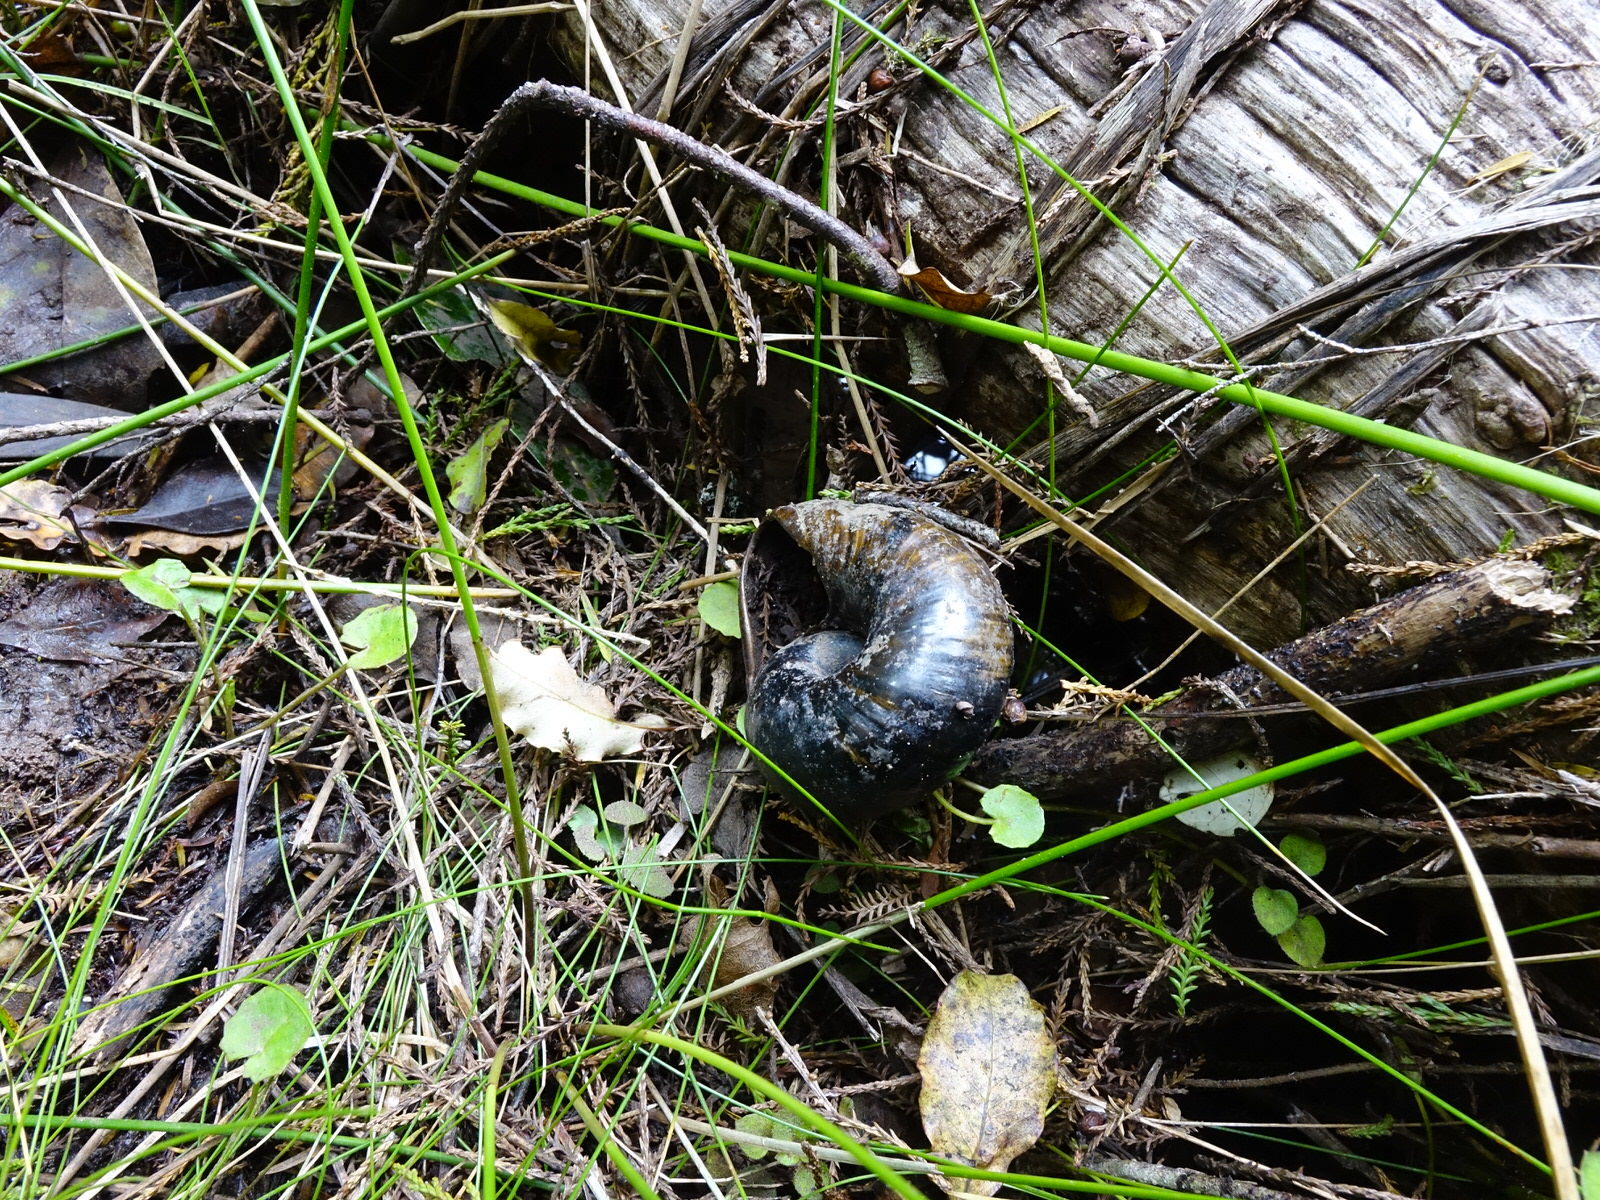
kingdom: Animalia
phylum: Mollusca
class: Gastropoda
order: Stylommatophora
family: Rhytididae
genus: Paryphanta
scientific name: Paryphanta busbyi
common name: Kauri snail
